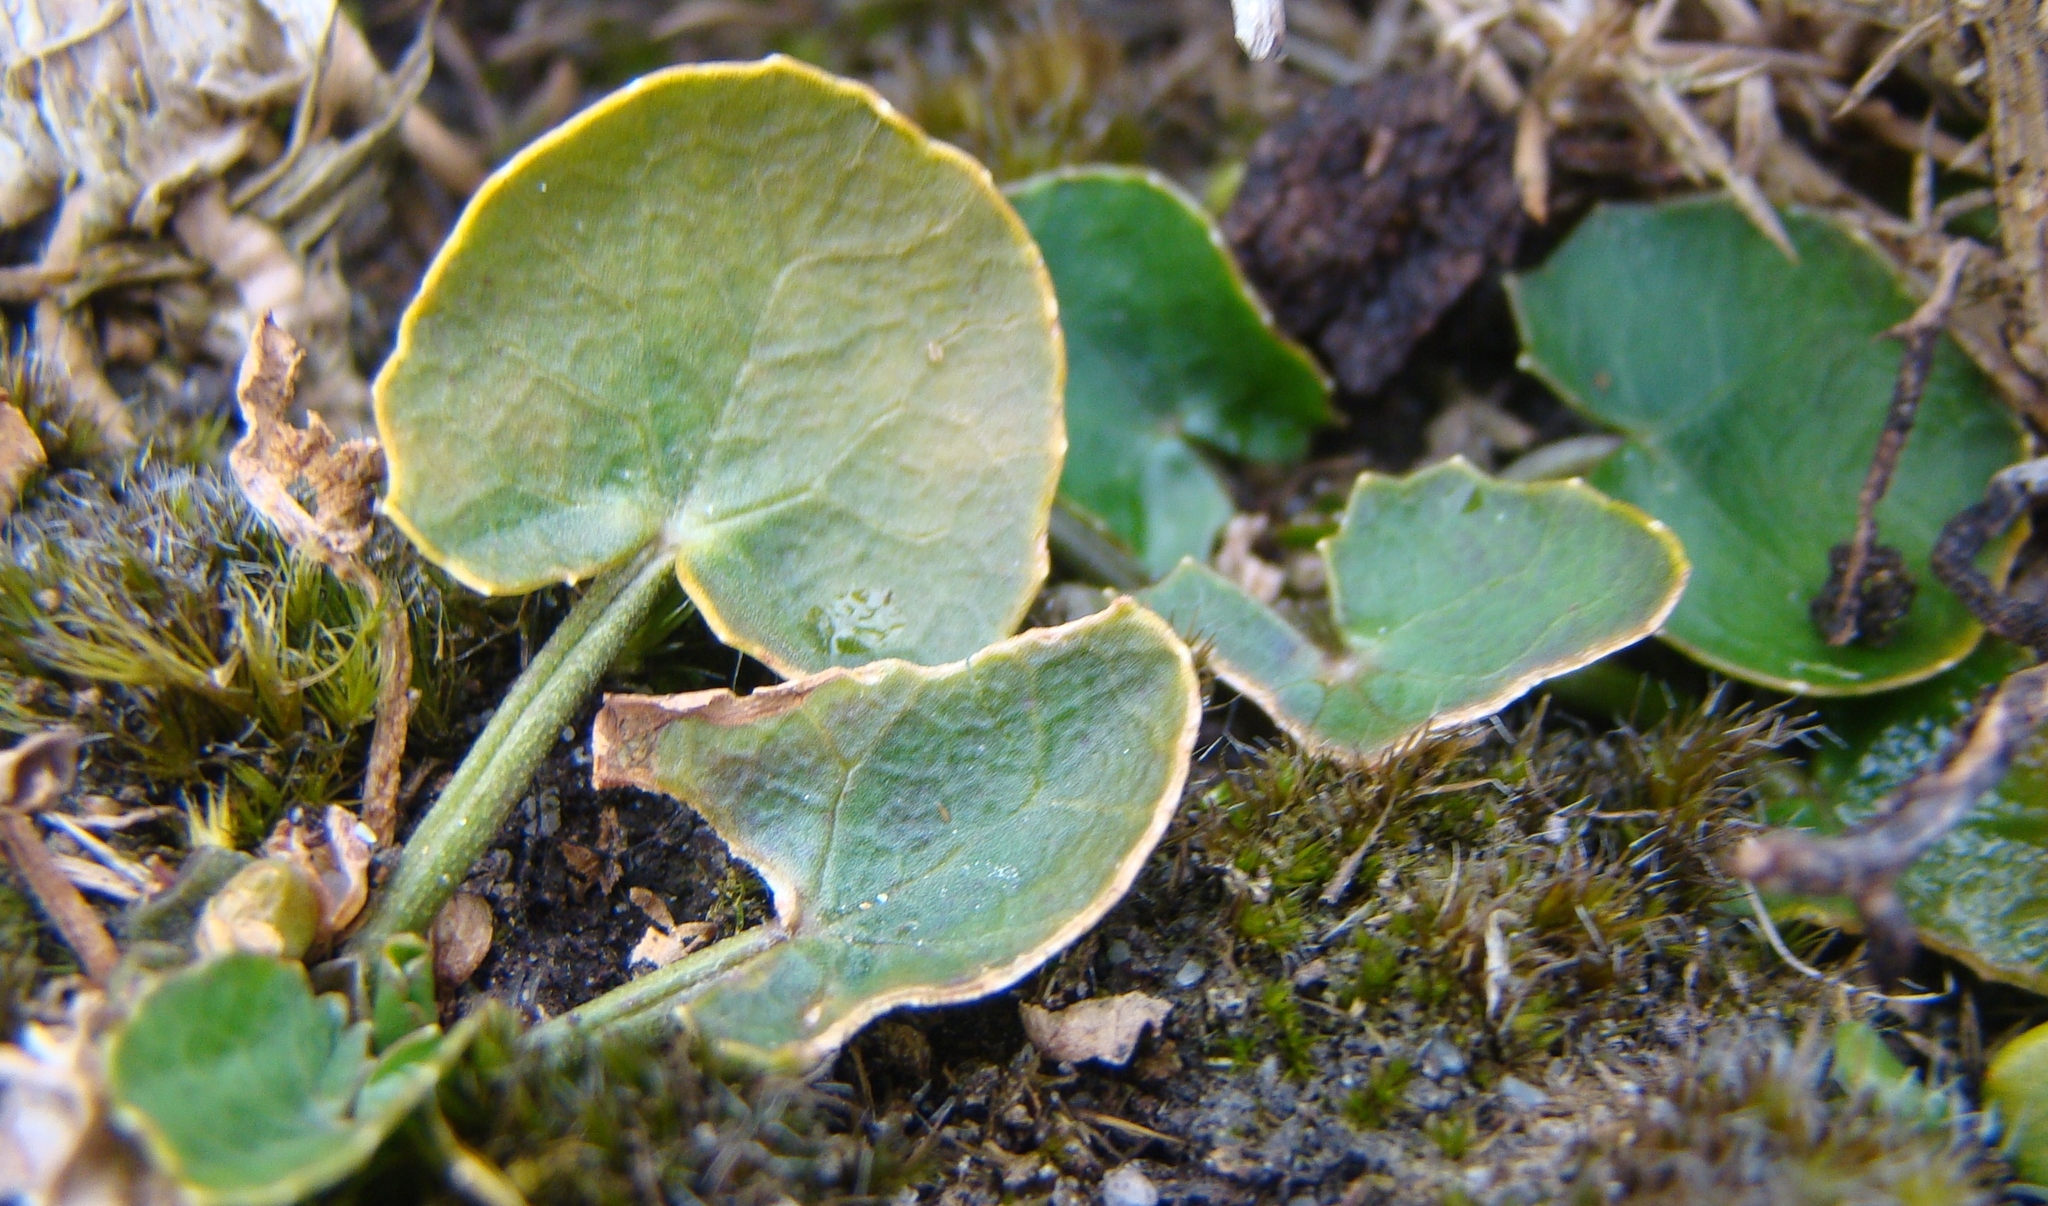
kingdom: Plantae
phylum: Tracheophyta
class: Magnoliopsida
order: Apiales
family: Apiaceae
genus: Centella
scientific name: Centella uniflora
